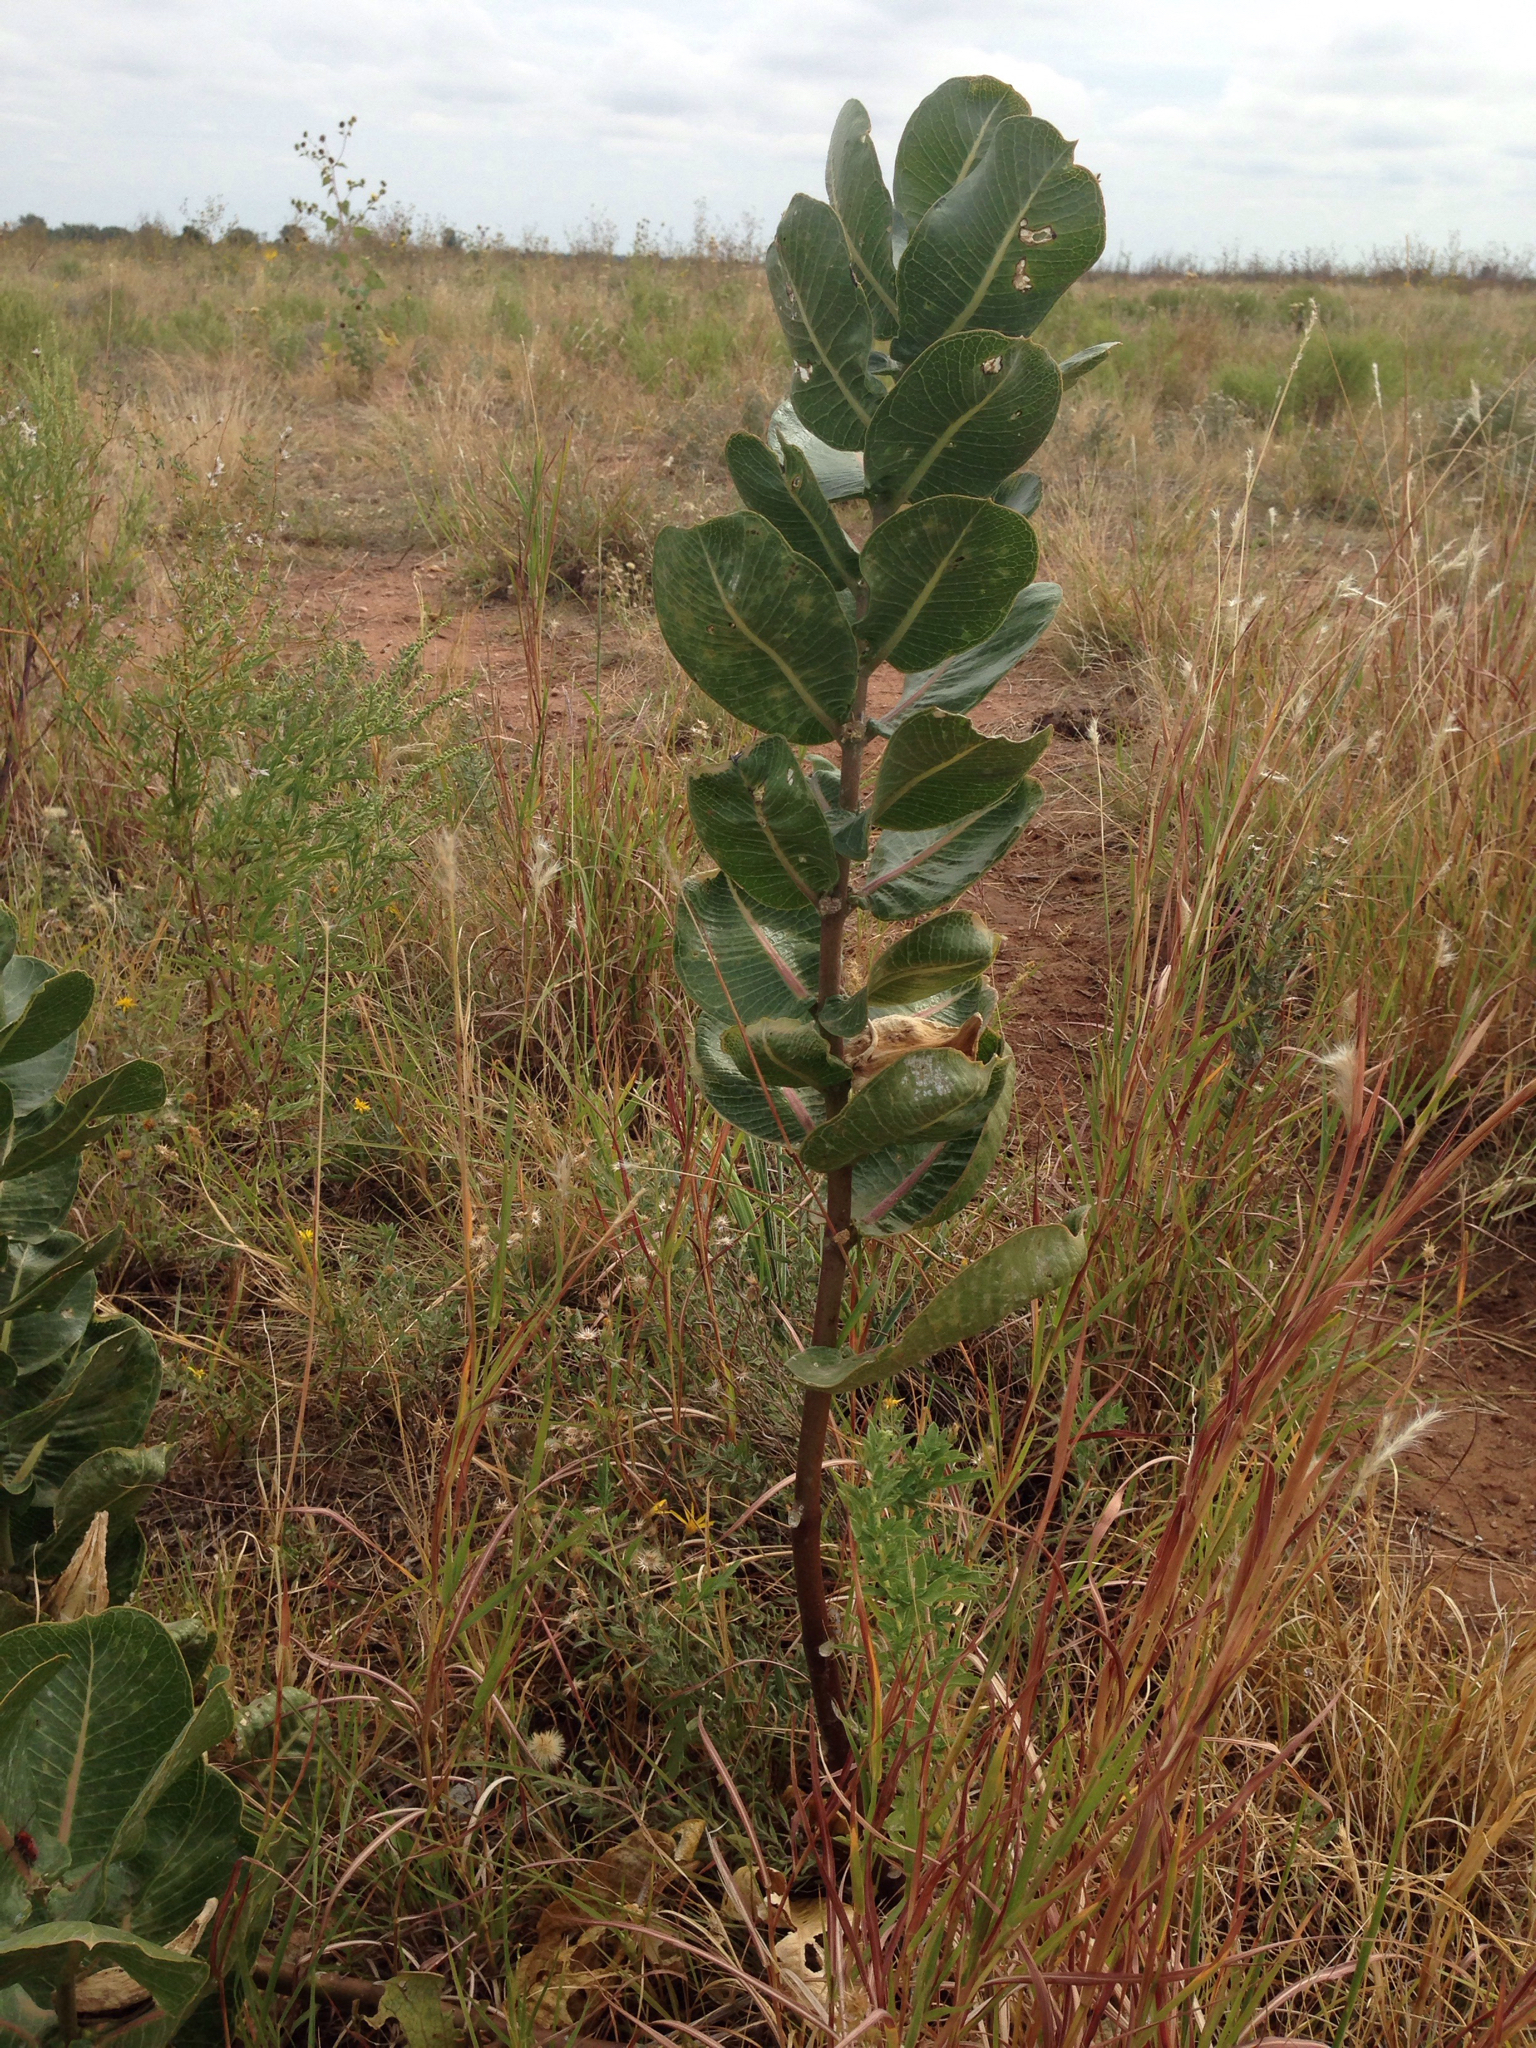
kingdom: Plantae
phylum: Tracheophyta
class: Magnoliopsida
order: Gentianales
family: Apocynaceae
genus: Asclepias
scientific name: Asclepias latifolia
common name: Broadleaf milkweed
